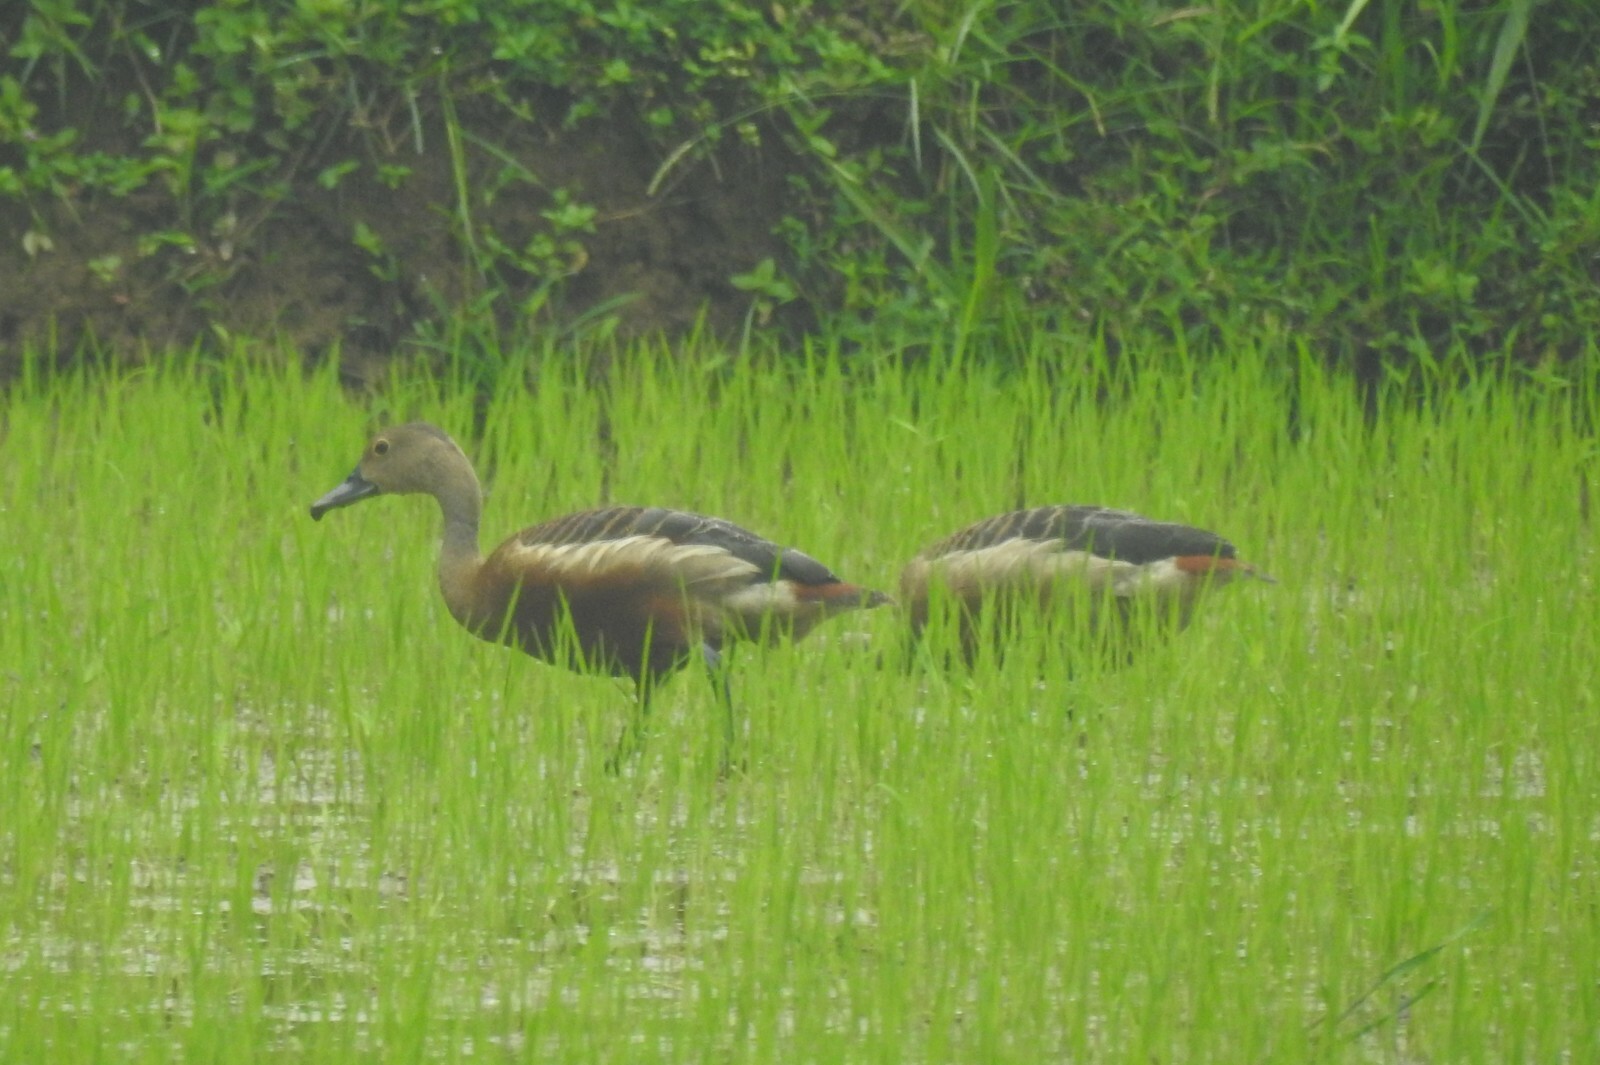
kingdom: Animalia
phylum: Chordata
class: Aves
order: Anseriformes
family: Anatidae
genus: Dendrocygna
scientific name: Dendrocygna javanica
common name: Lesser whistling-duck
